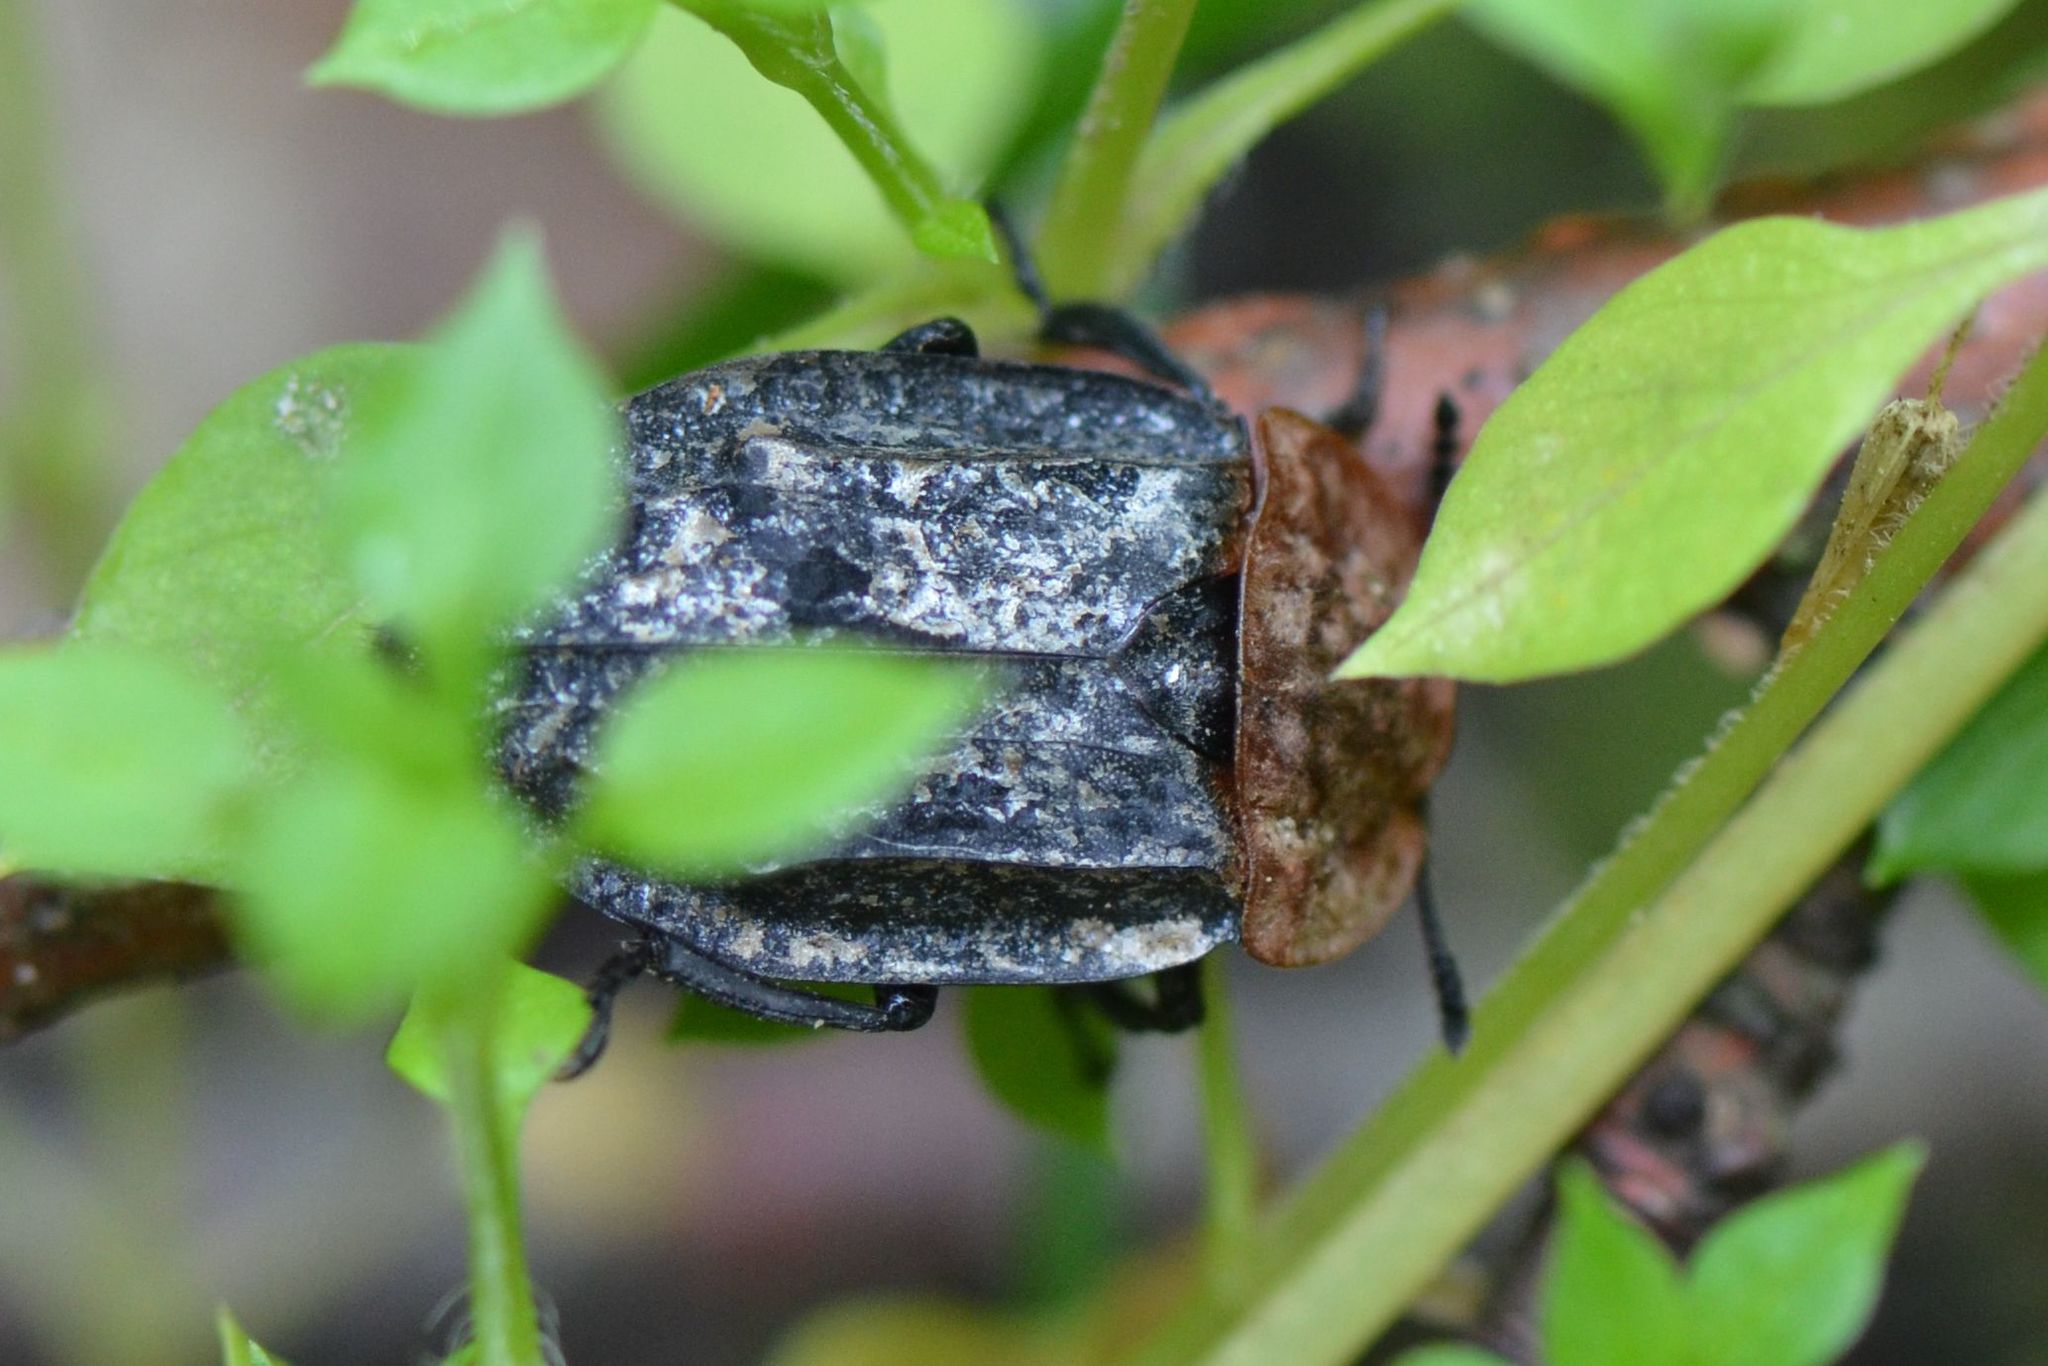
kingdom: Animalia
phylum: Arthropoda
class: Insecta
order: Coleoptera
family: Staphylinidae
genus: Oiceoptoma
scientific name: Oiceoptoma thoracicum
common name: Red-breasted carrion beetle
